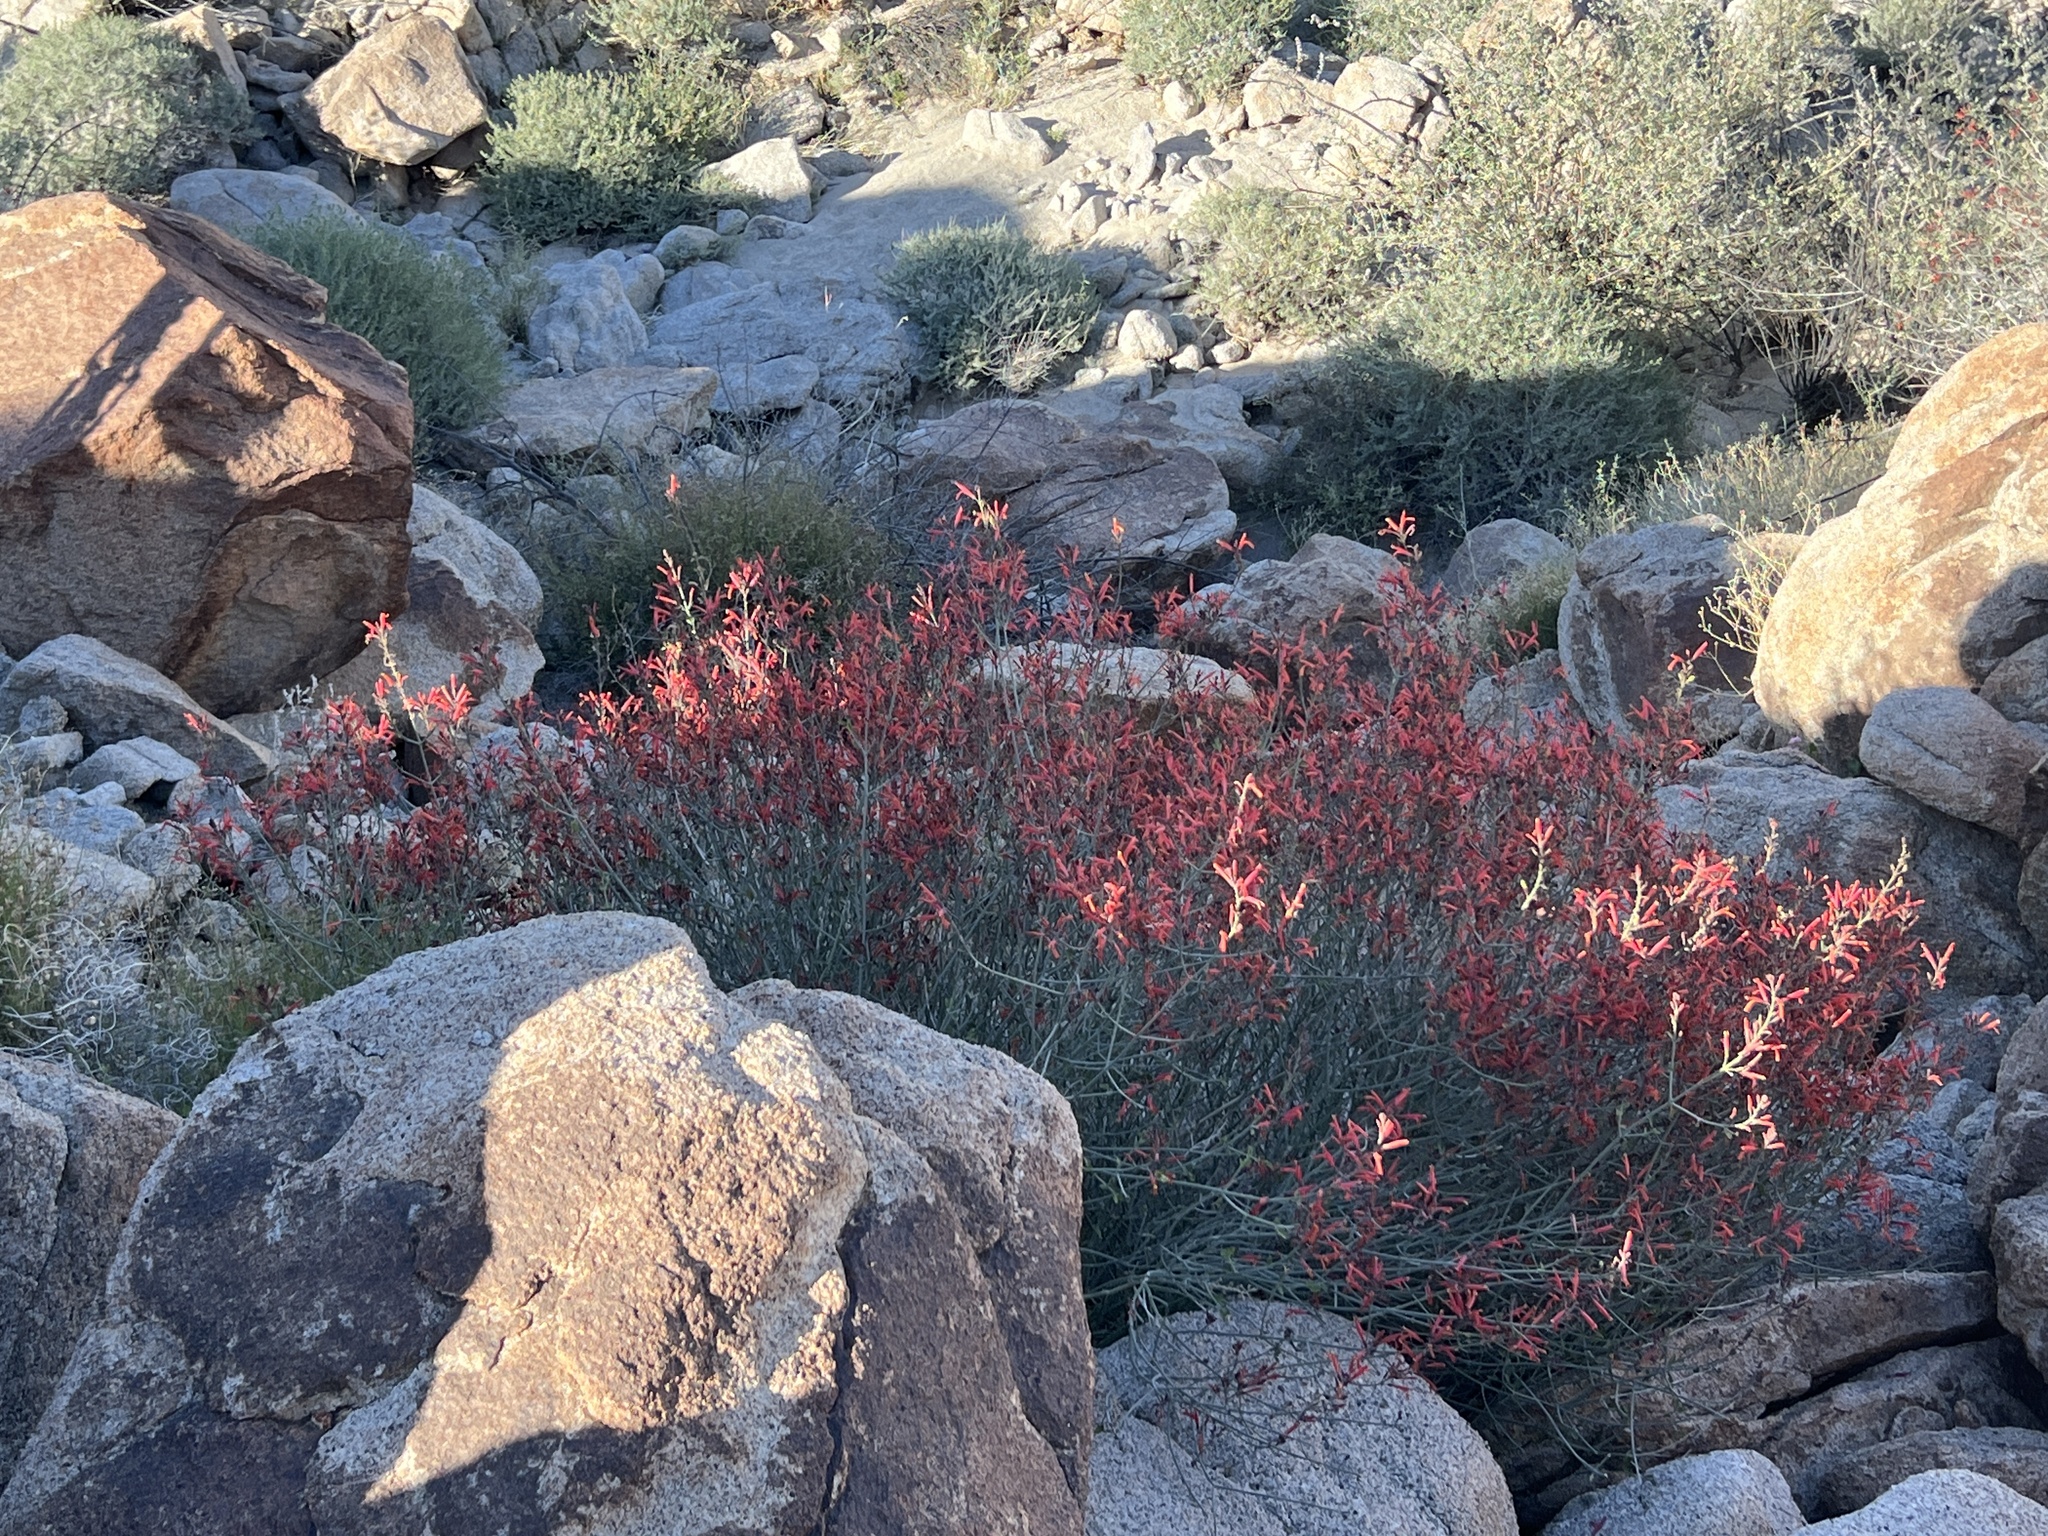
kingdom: Plantae
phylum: Tracheophyta
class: Magnoliopsida
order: Lamiales
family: Acanthaceae
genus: Justicia
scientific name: Justicia californica
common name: Chuparosa-honeysuckle
